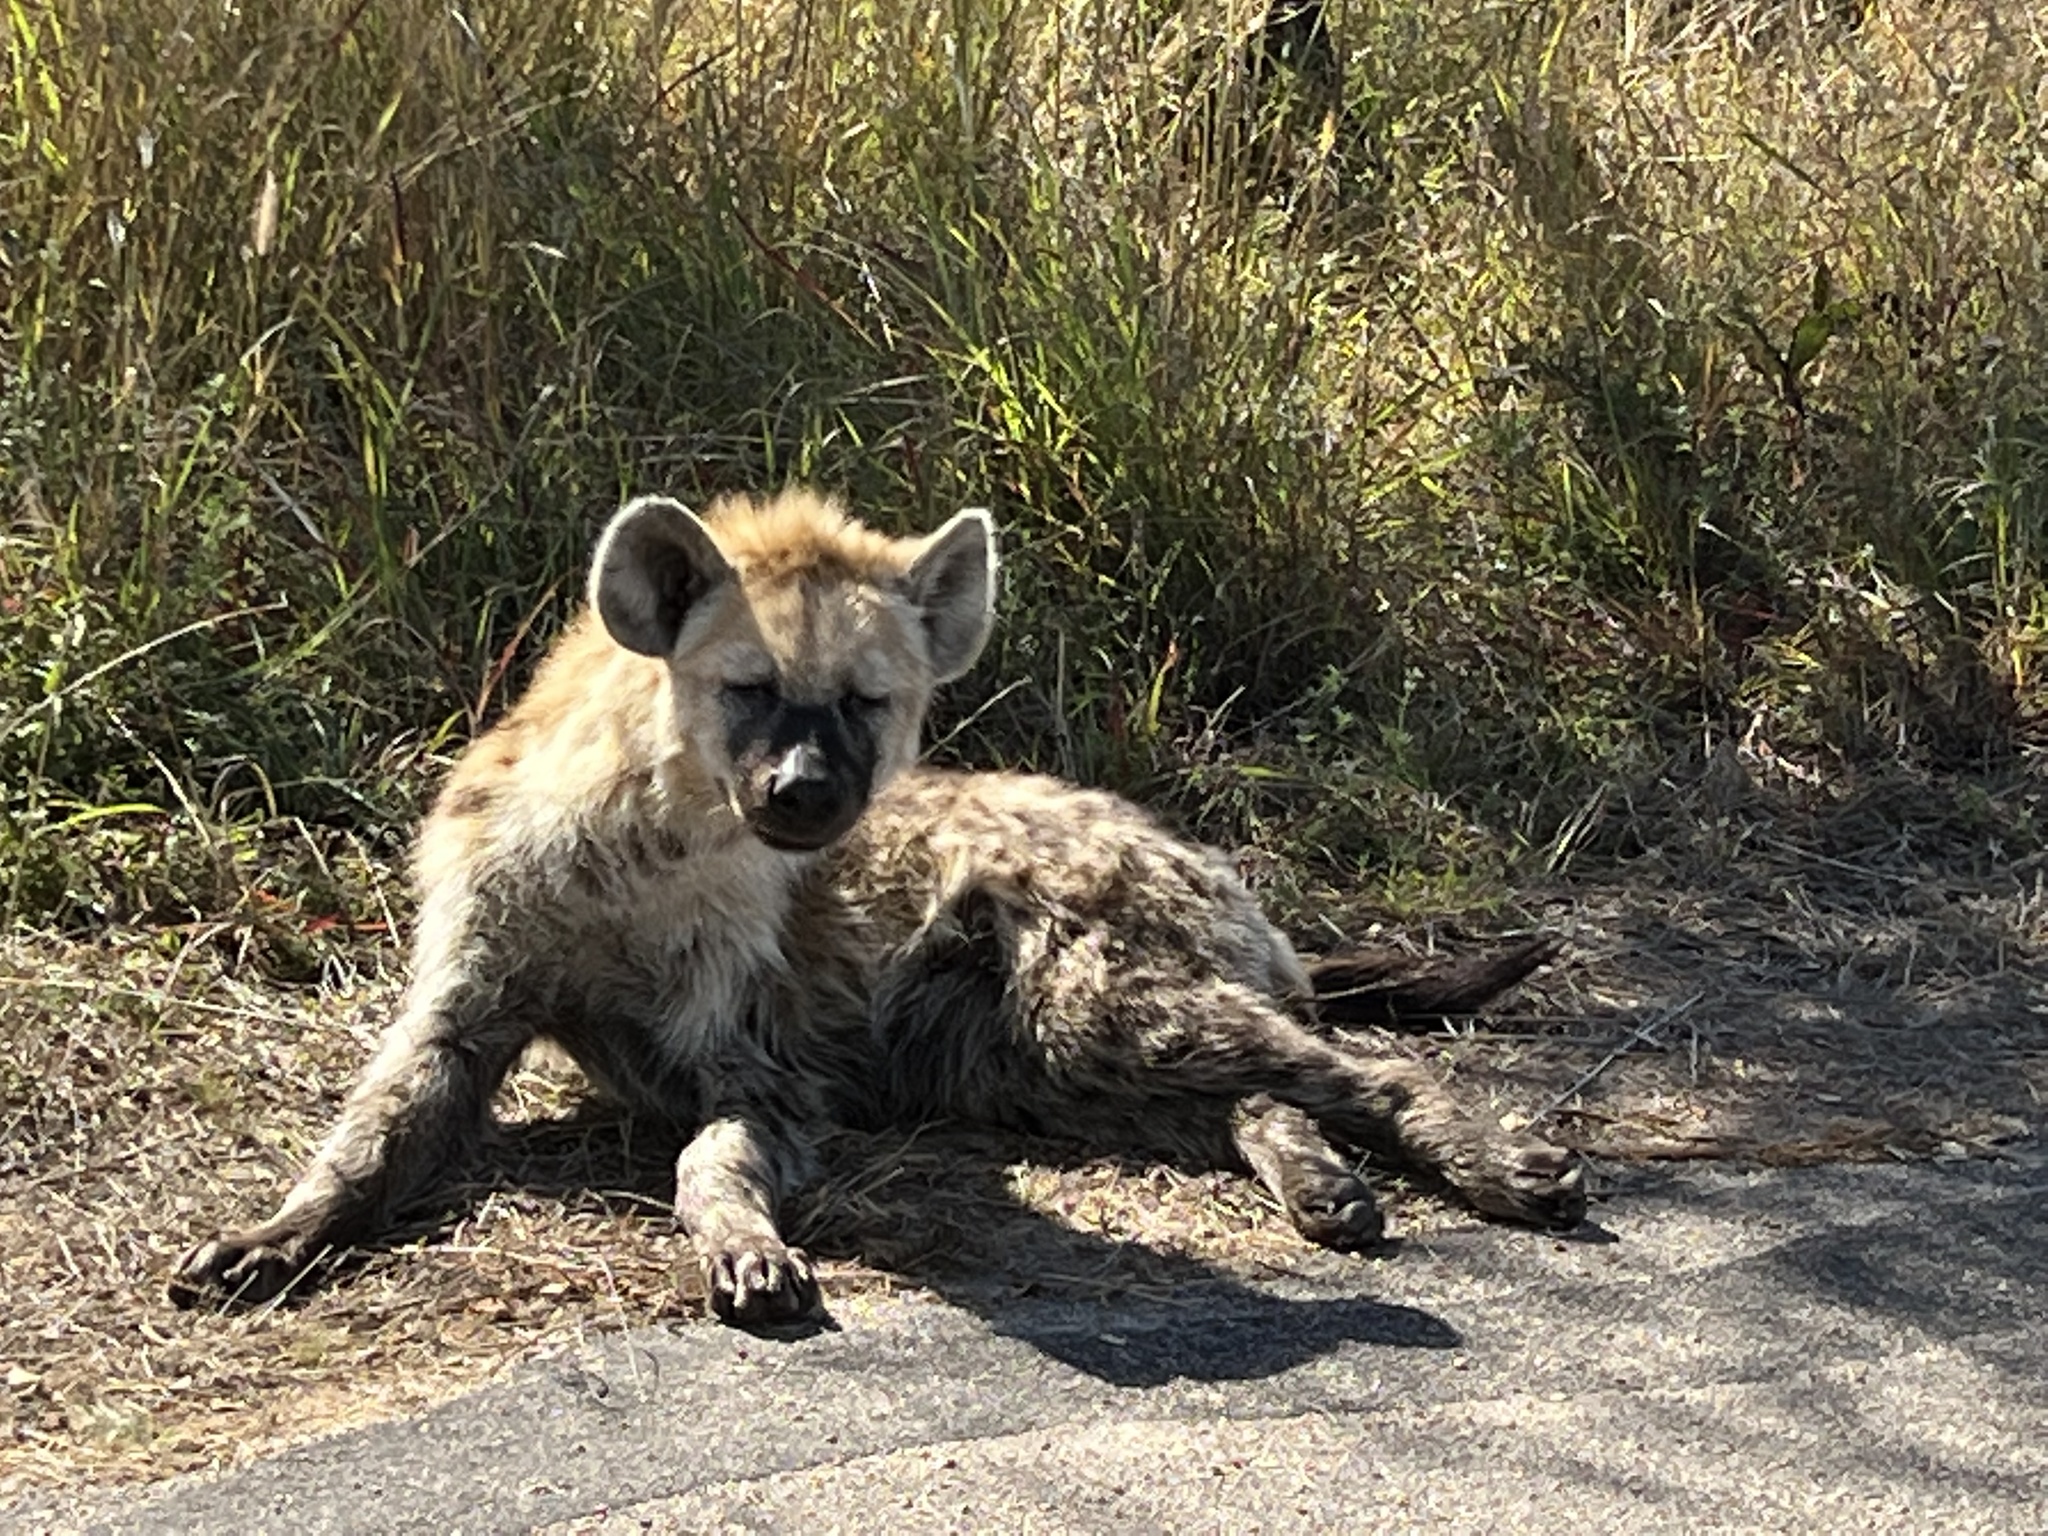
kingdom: Animalia
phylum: Chordata
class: Mammalia
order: Carnivora
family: Hyaenidae
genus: Crocuta
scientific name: Crocuta crocuta
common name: Spotted hyaena
